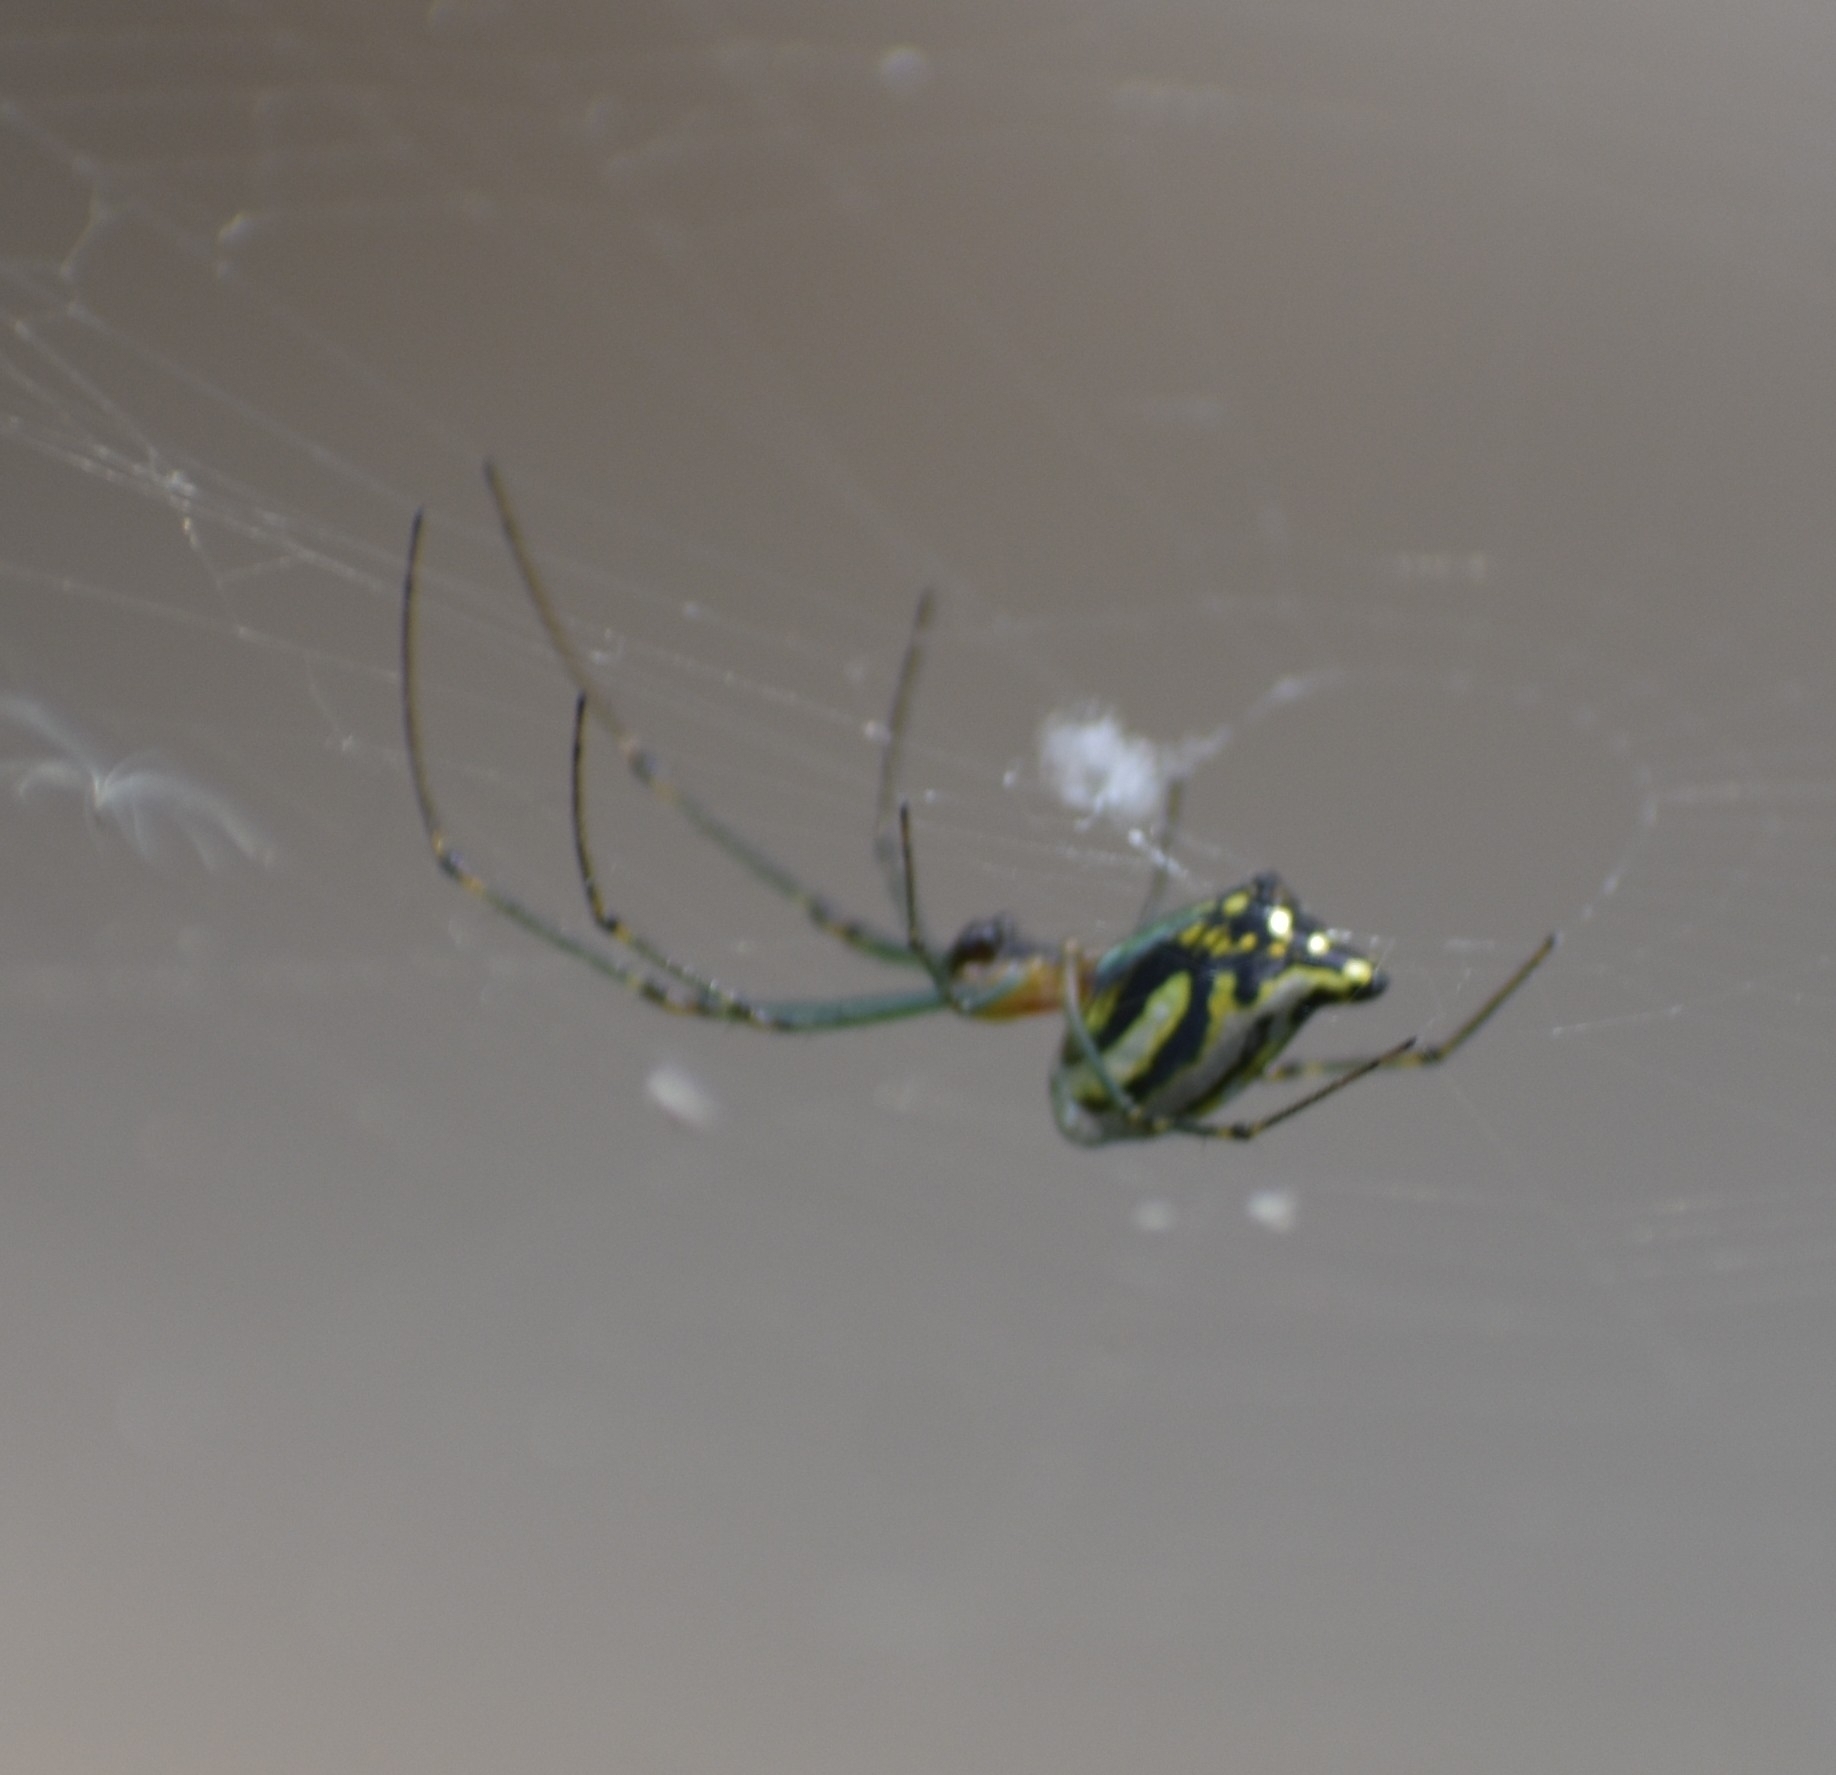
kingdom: Animalia
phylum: Arthropoda
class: Arachnida
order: Araneae
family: Tetragnathidae
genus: Leucauge
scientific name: Leucauge decorata
